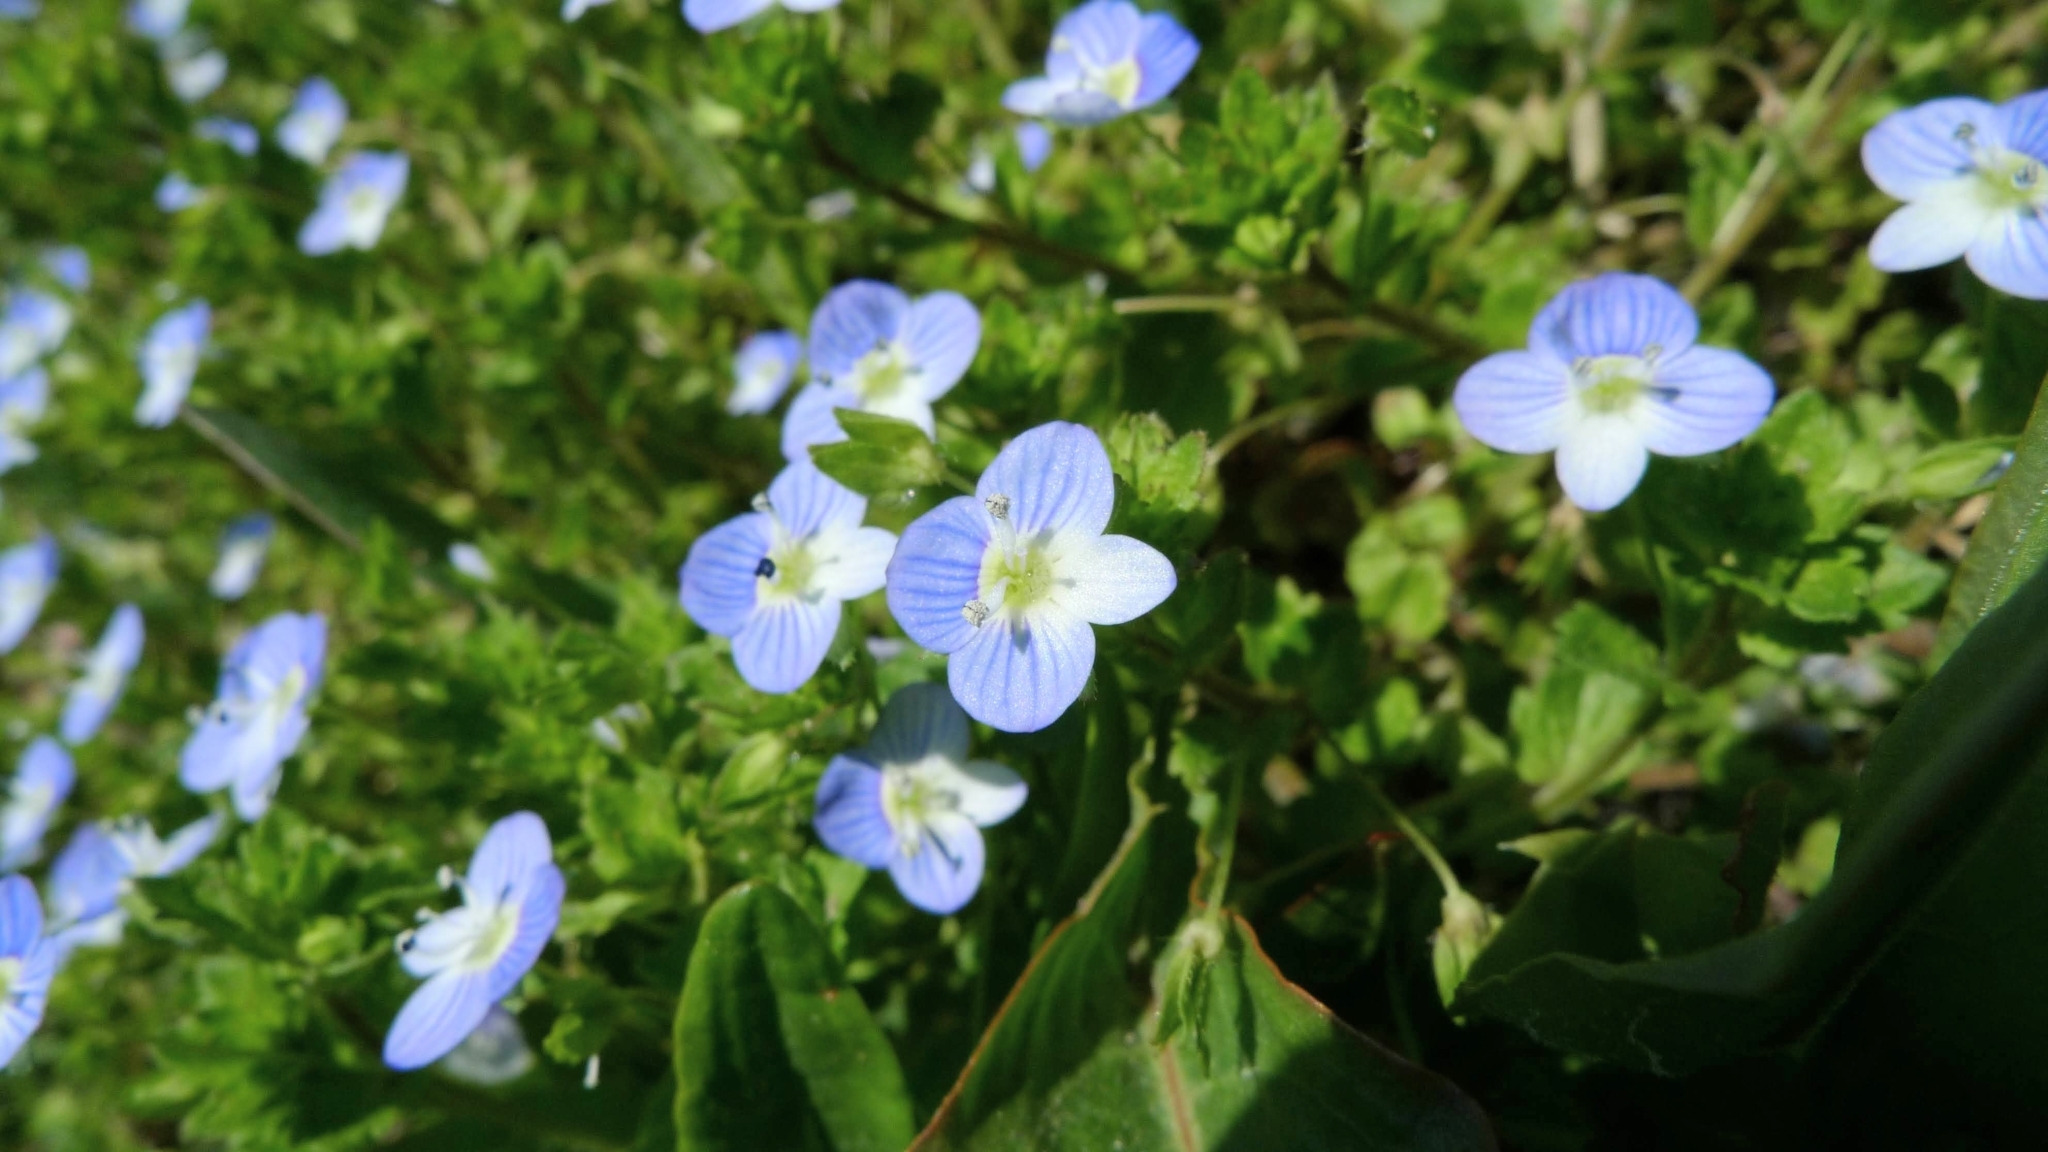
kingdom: Plantae
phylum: Tracheophyta
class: Magnoliopsida
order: Lamiales
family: Plantaginaceae
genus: Veronica
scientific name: Veronica persica
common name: Common field-speedwell
